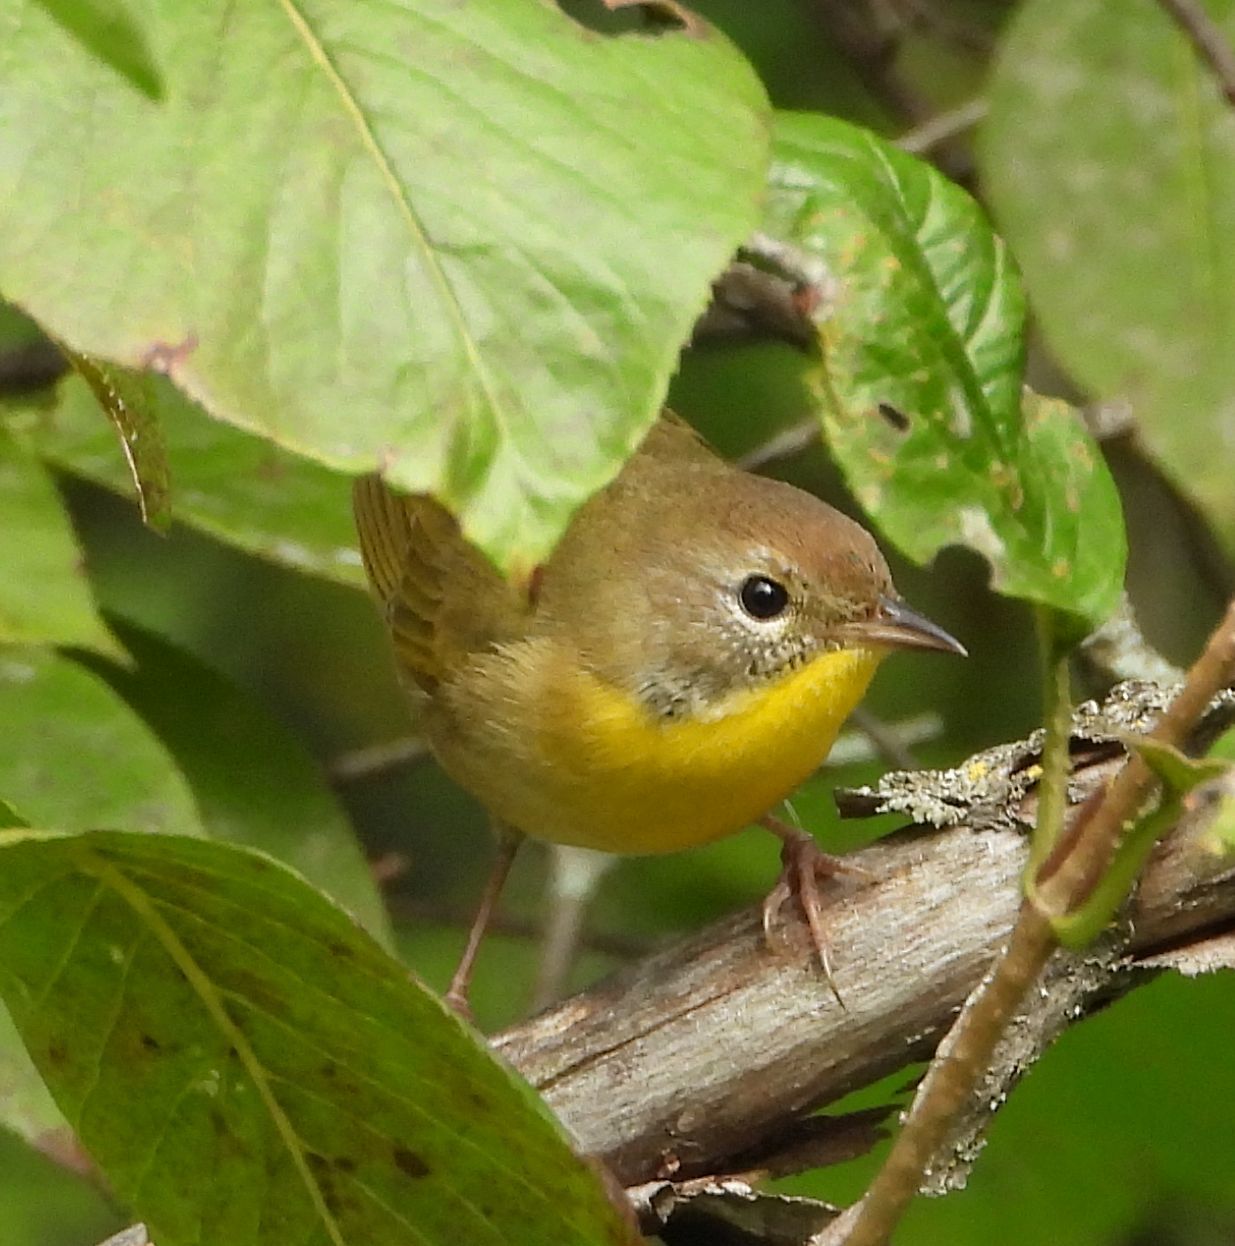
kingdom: Animalia
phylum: Chordata
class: Aves
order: Passeriformes
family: Parulidae
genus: Geothlypis
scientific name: Geothlypis trichas
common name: Common yellowthroat
